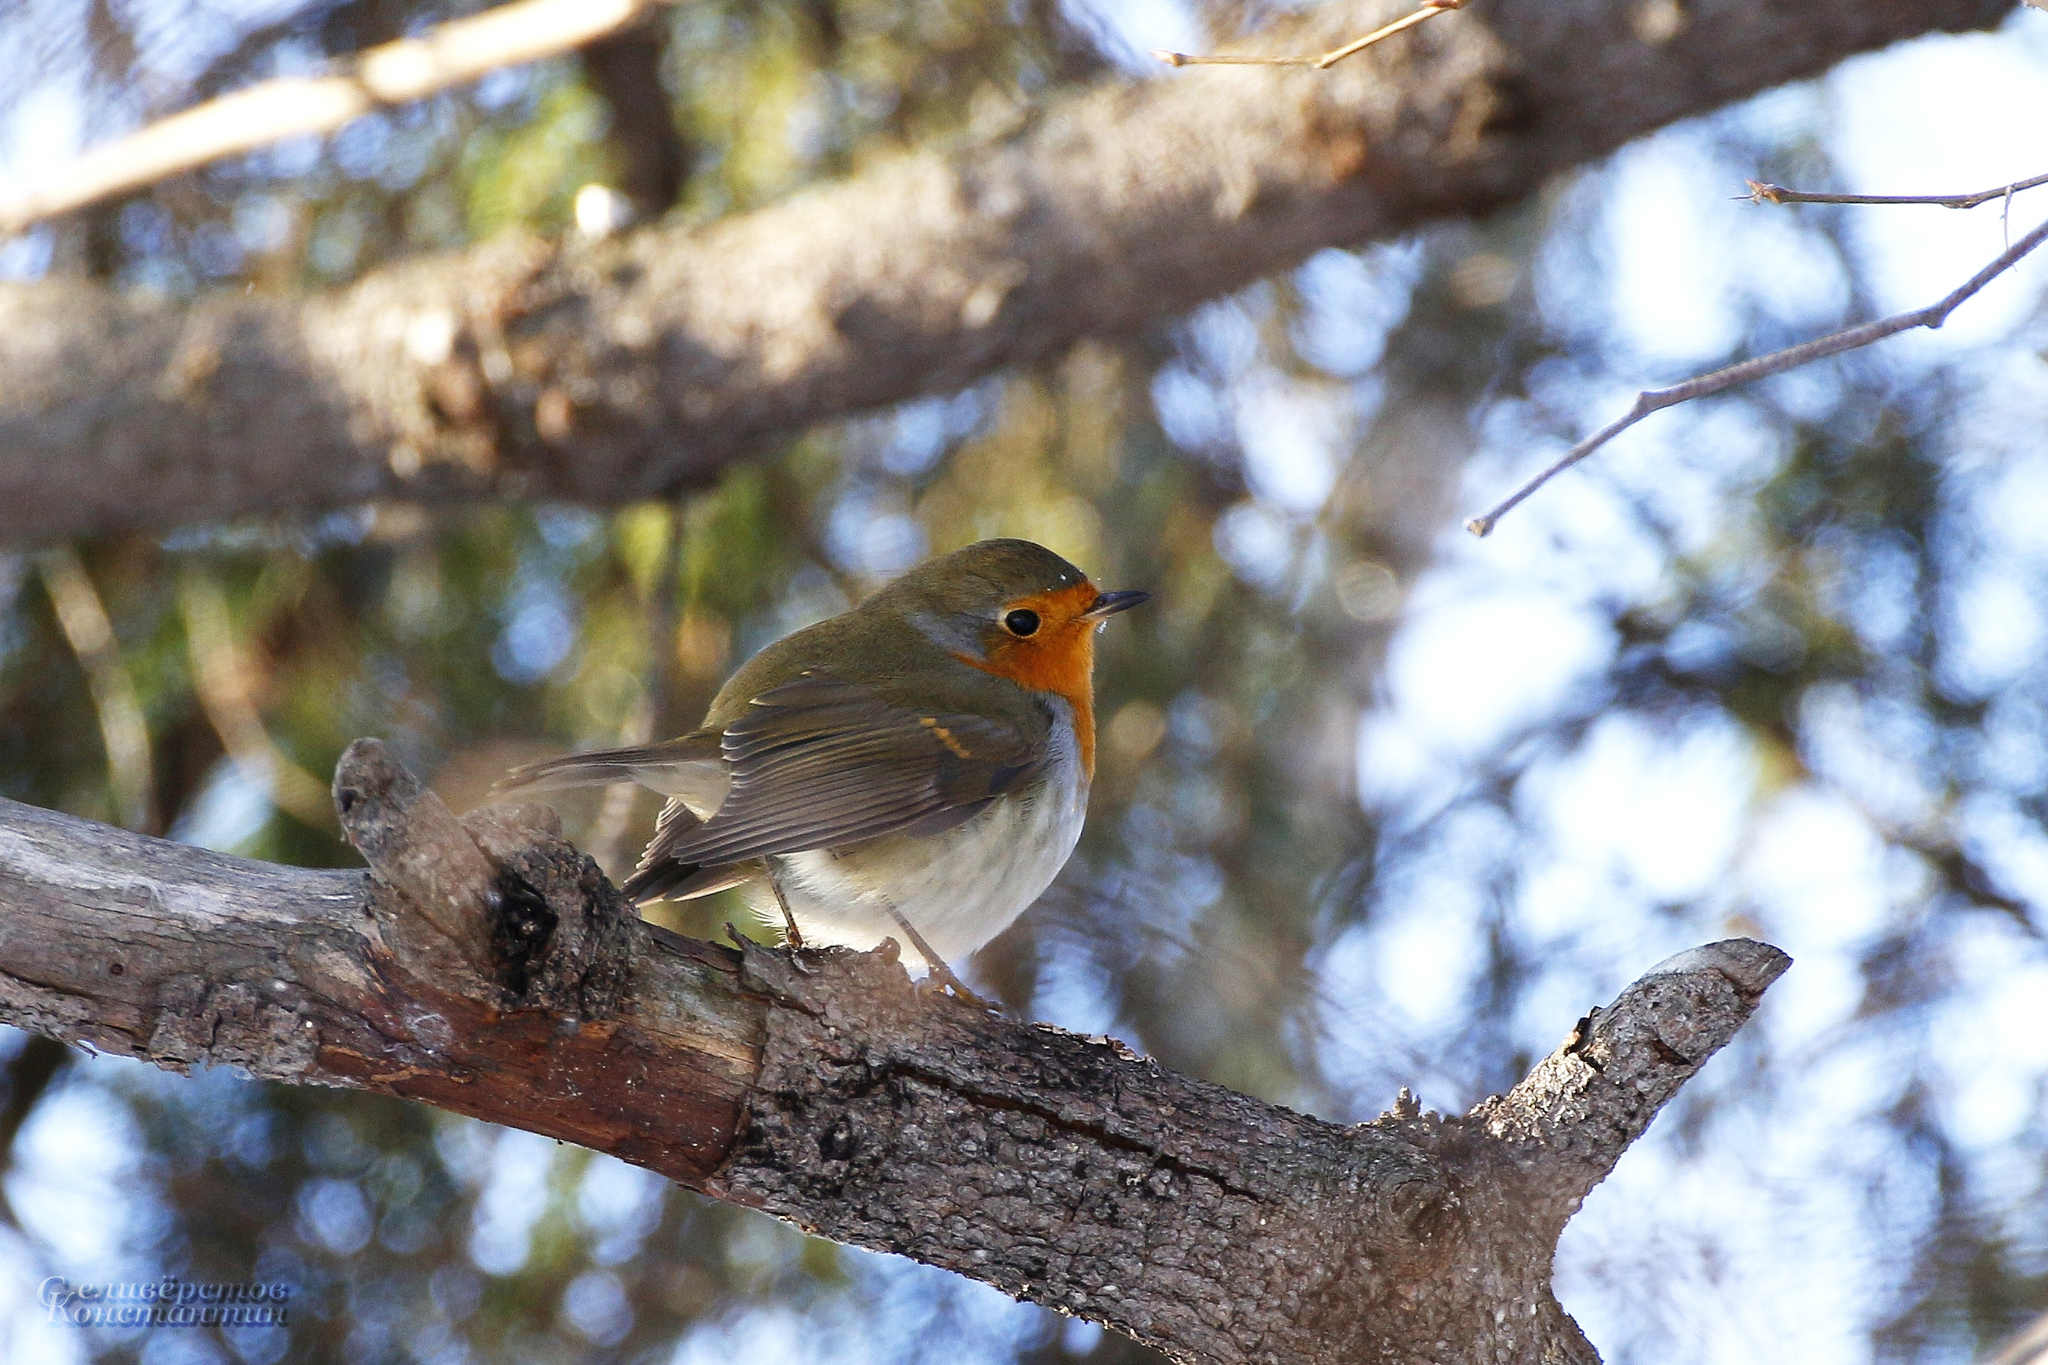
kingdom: Animalia
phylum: Chordata
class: Aves
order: Passeriformes
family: Muscicapidae
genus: Erithacus
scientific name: Erithacus rubecula
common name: European robin
